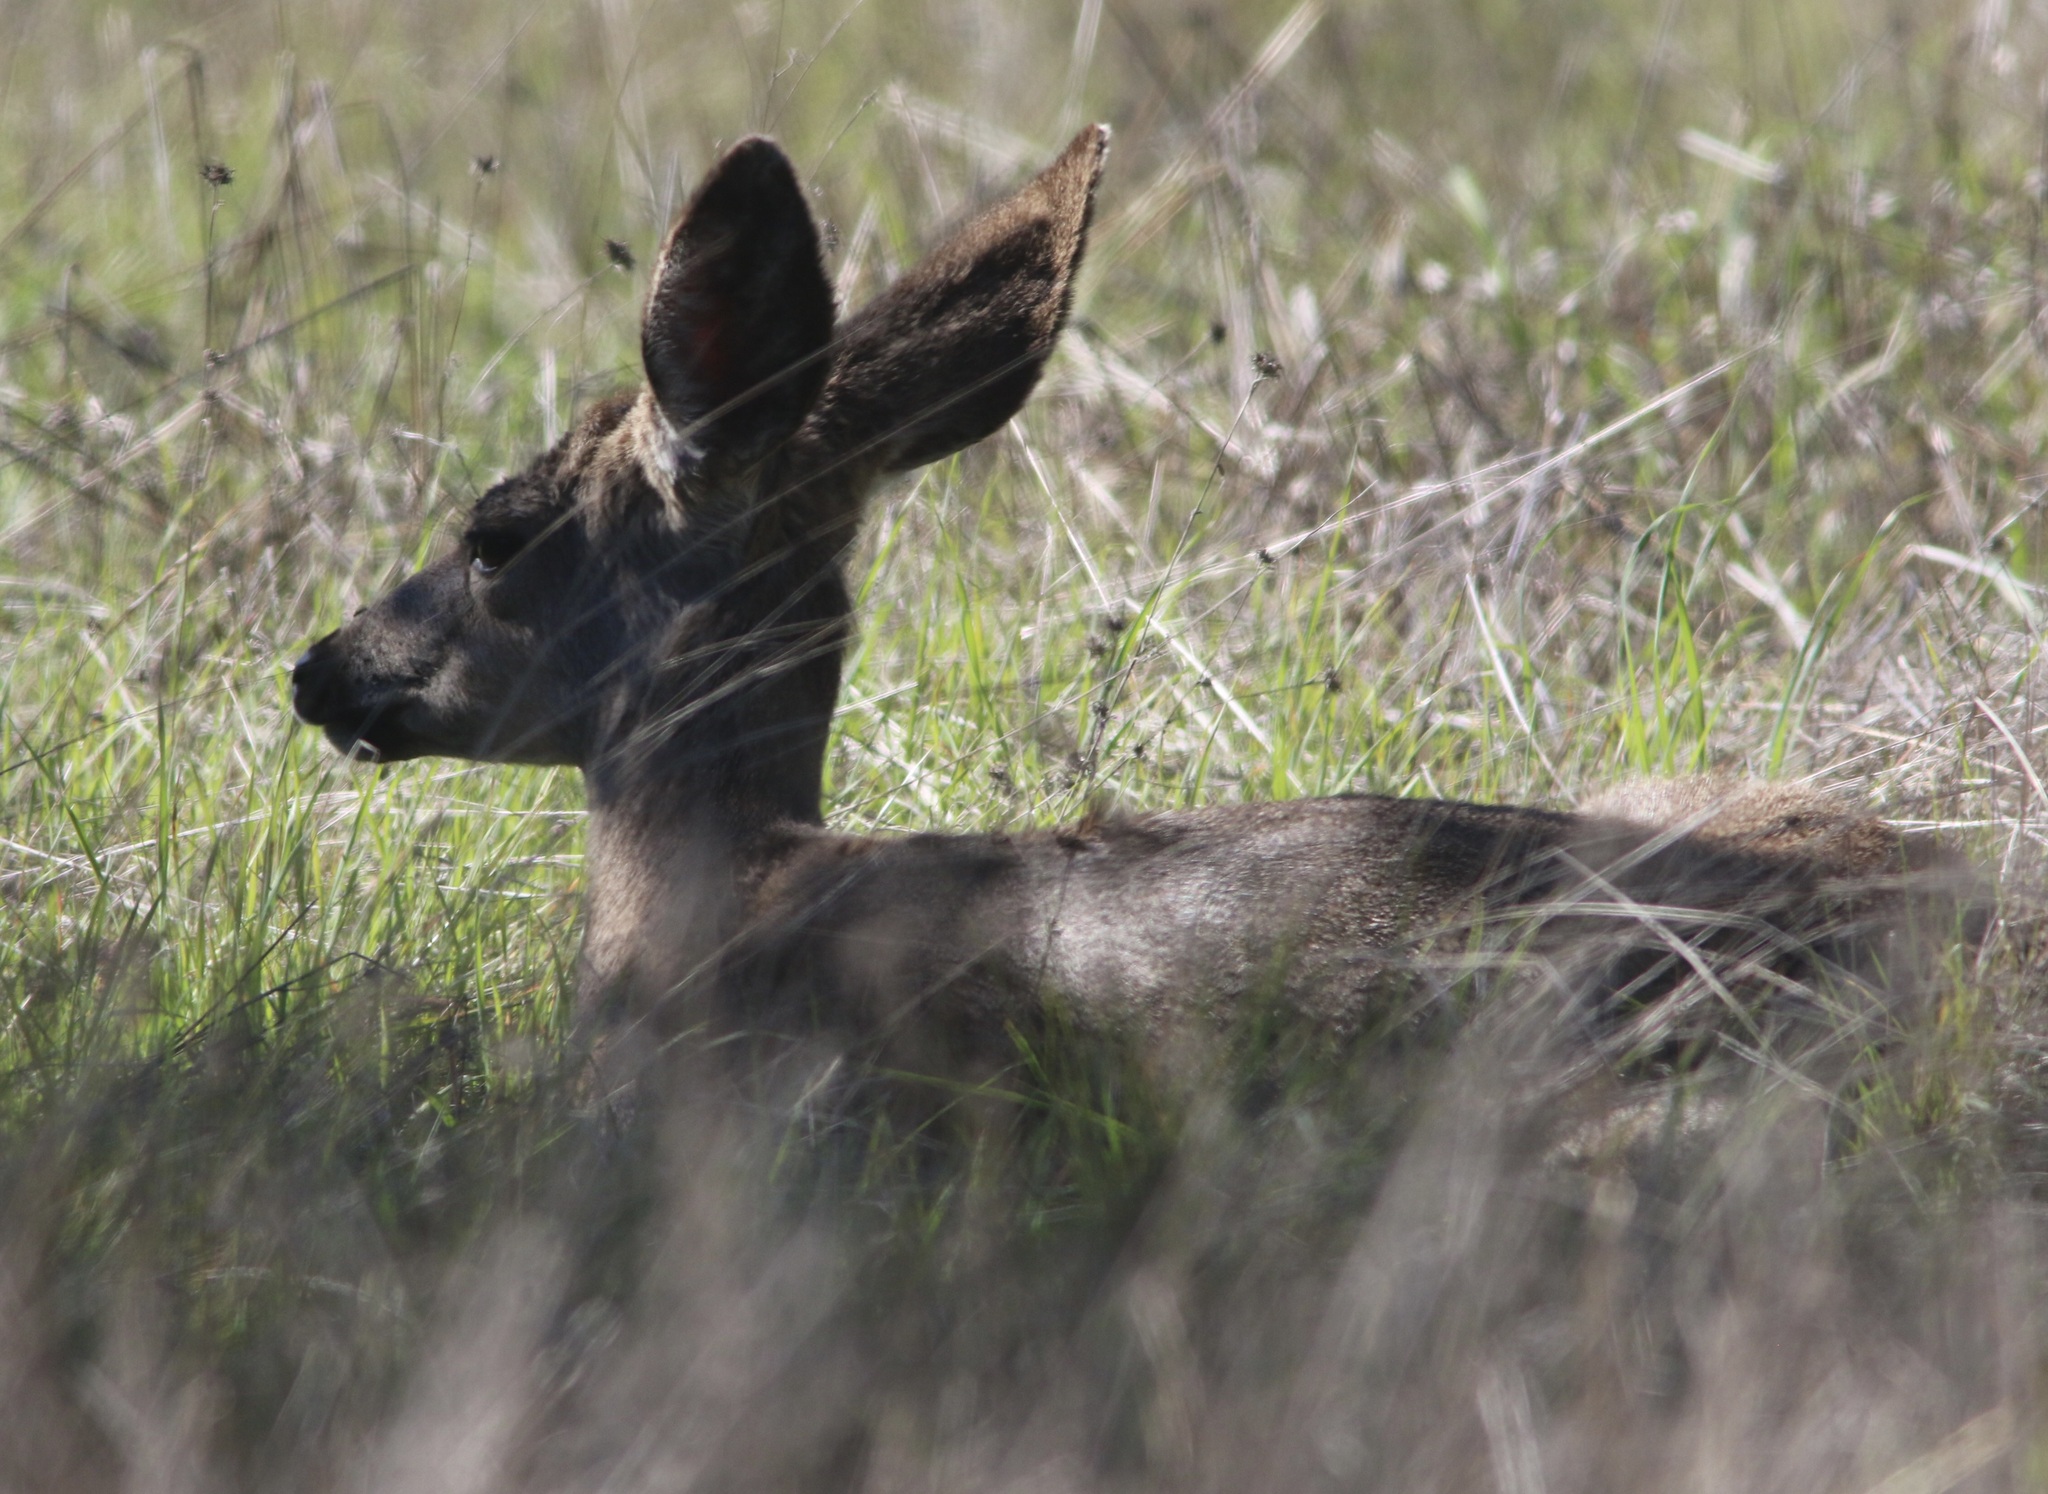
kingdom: Animalia
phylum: Chordata
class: Mammalia
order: Artiodactyla
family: Cervidae
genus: Odocoileus
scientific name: Odocoileus hemionus
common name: Mule deer
